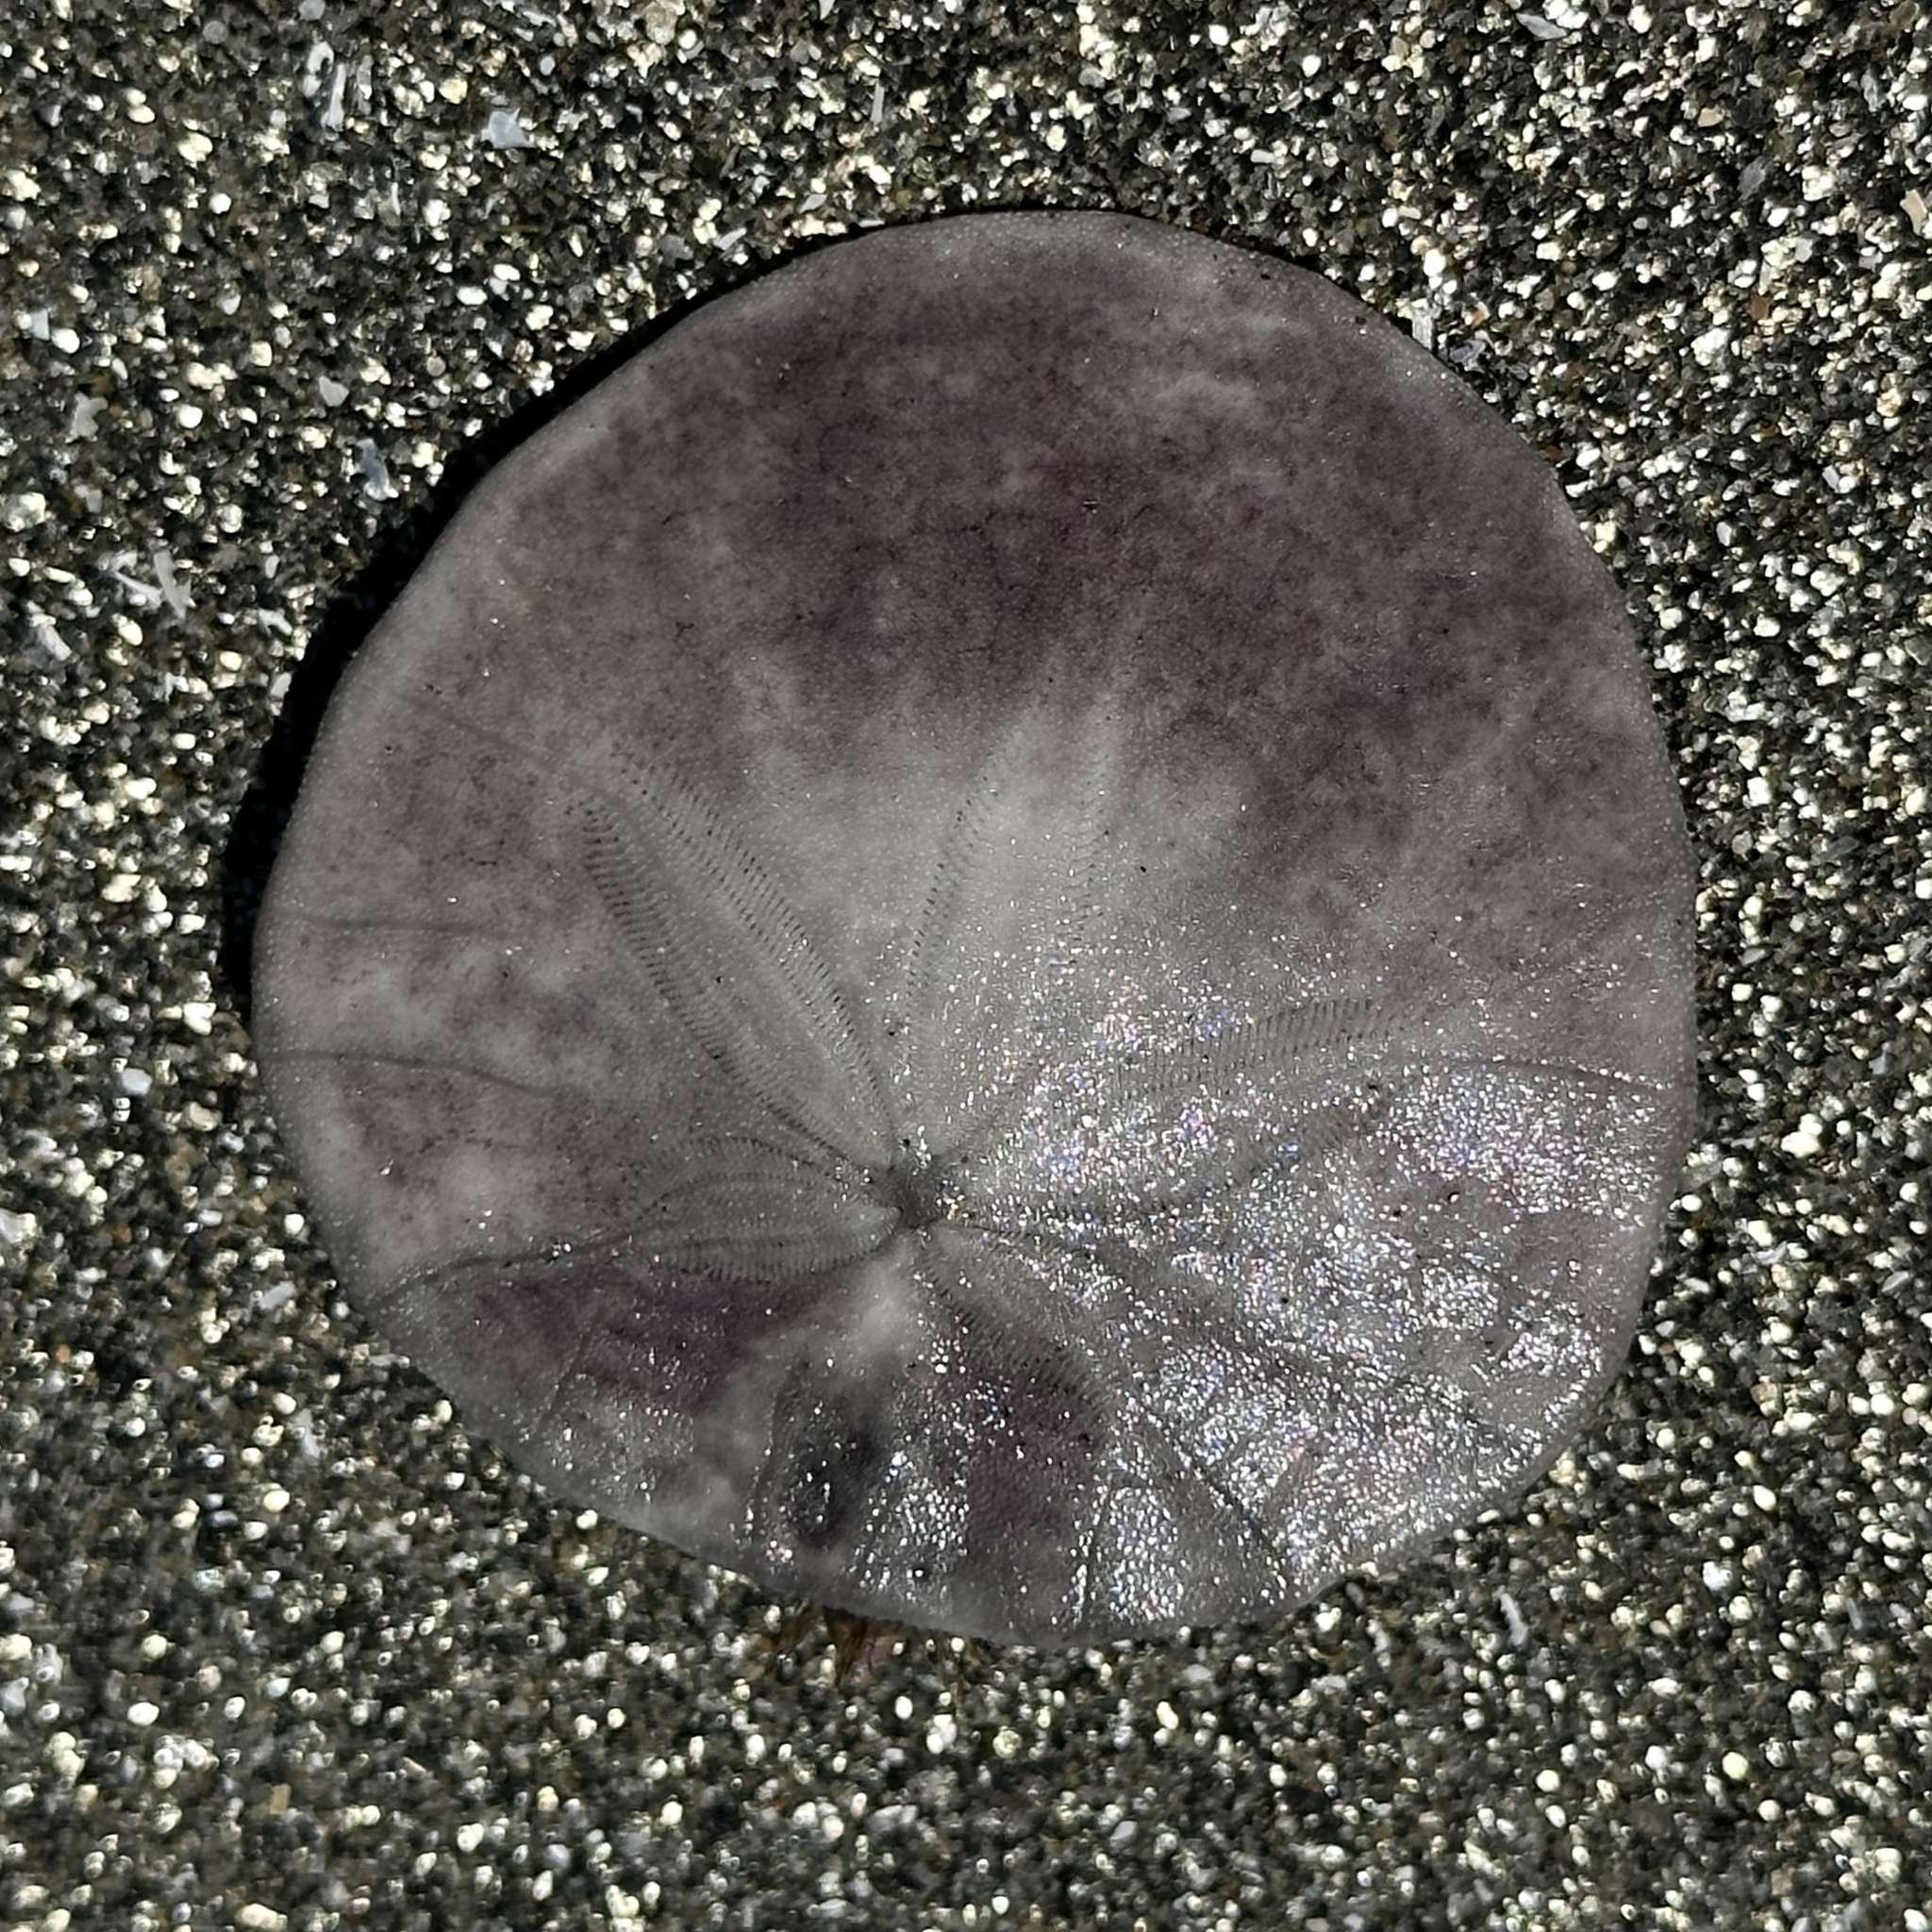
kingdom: Animalia
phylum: Echinodermata
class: Echinoidea
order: Echinolampadacea
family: Dendrasteridae
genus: Dendraster
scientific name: Dendraster excentricus
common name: Eccentric sand dollar sea urchin
